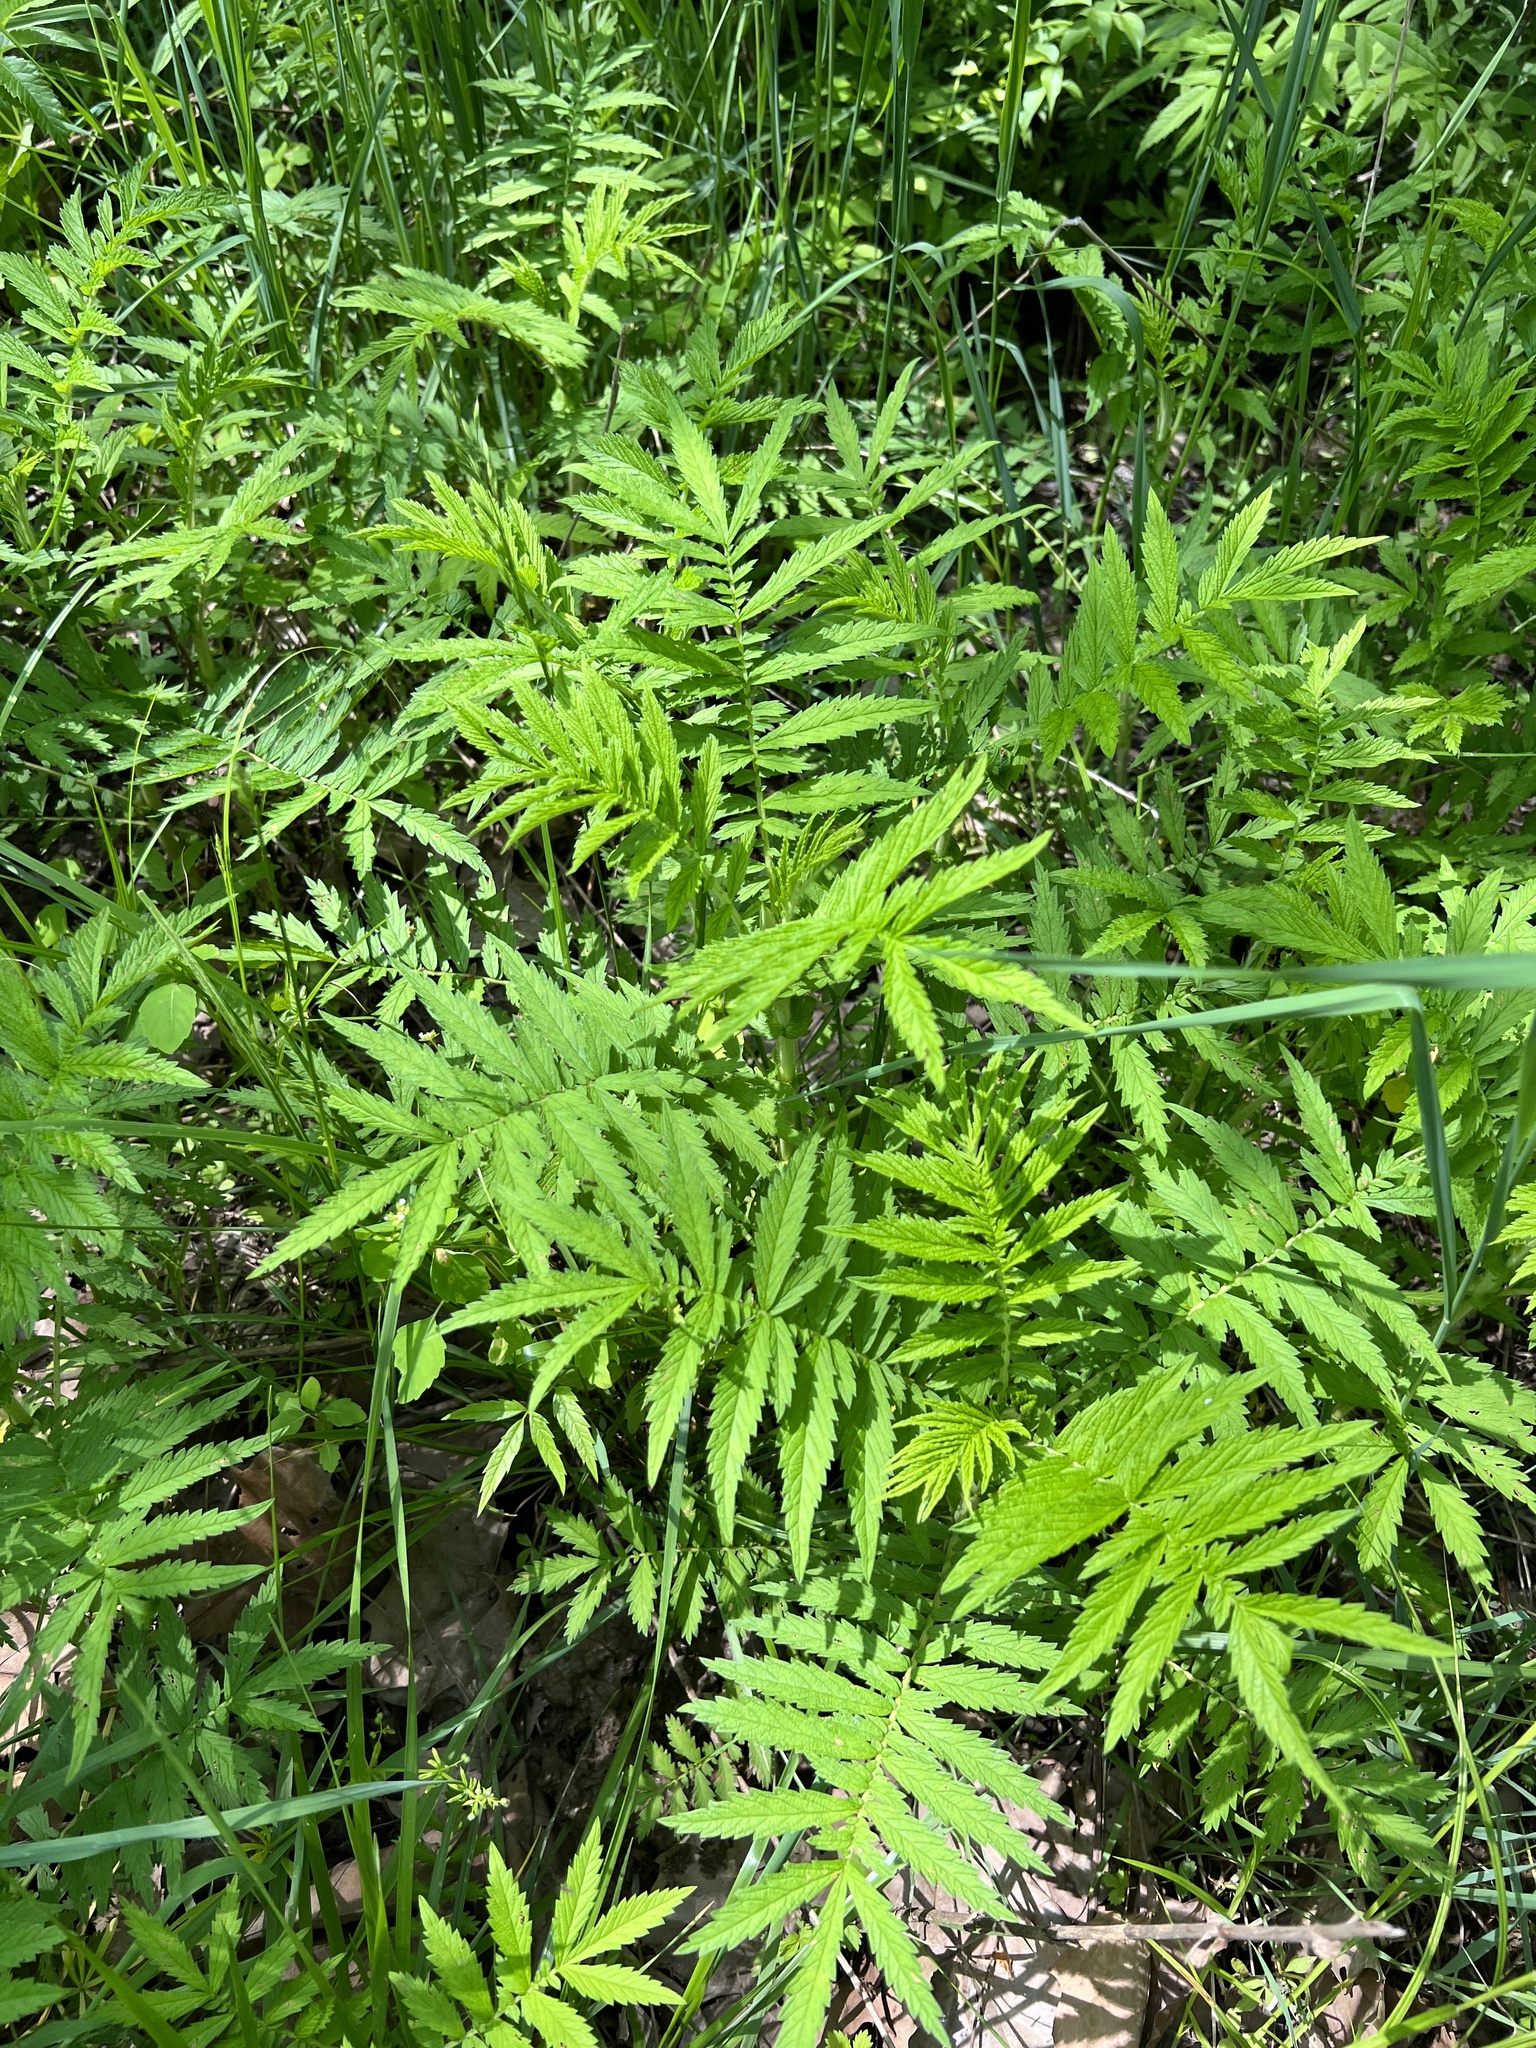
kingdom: Plantae
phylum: Tracheophyta
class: Magnoliopsida
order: Rosales
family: Rosaceae
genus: Agrimonia
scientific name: Agrimonia parviflora
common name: Harvest-lice
